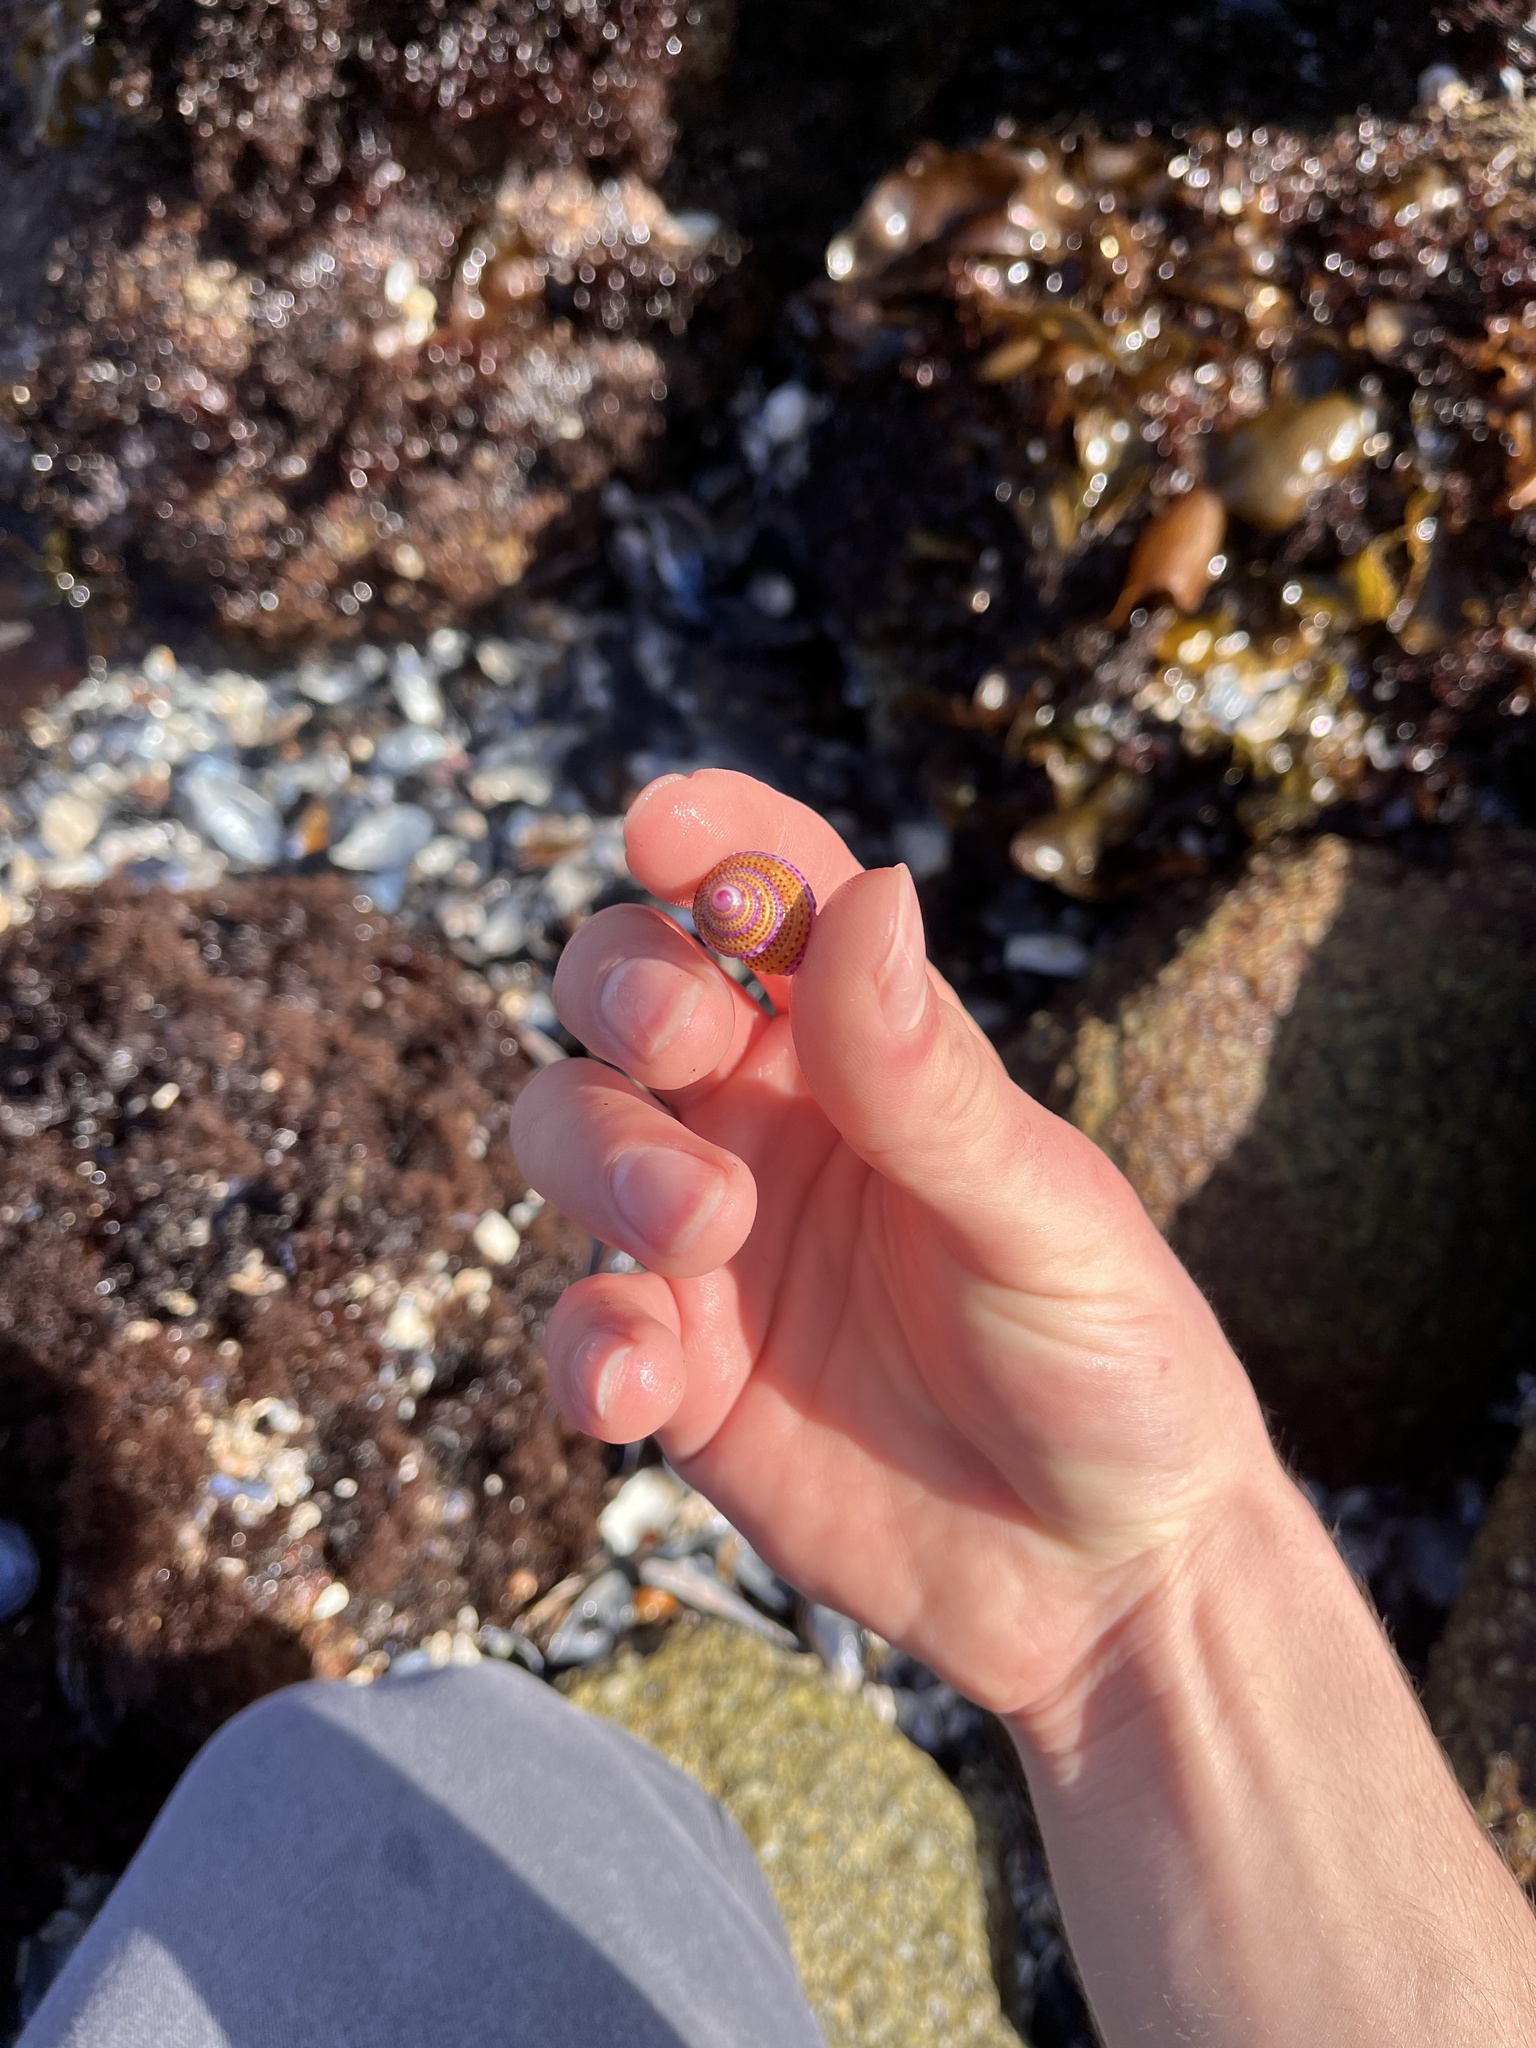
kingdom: Animalia
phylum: Mollusca
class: Gastropoda
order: Trochida
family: Calliostomatidae
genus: Calliostoma
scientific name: Calliostoma annulatum
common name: Blue-ring topsnail
